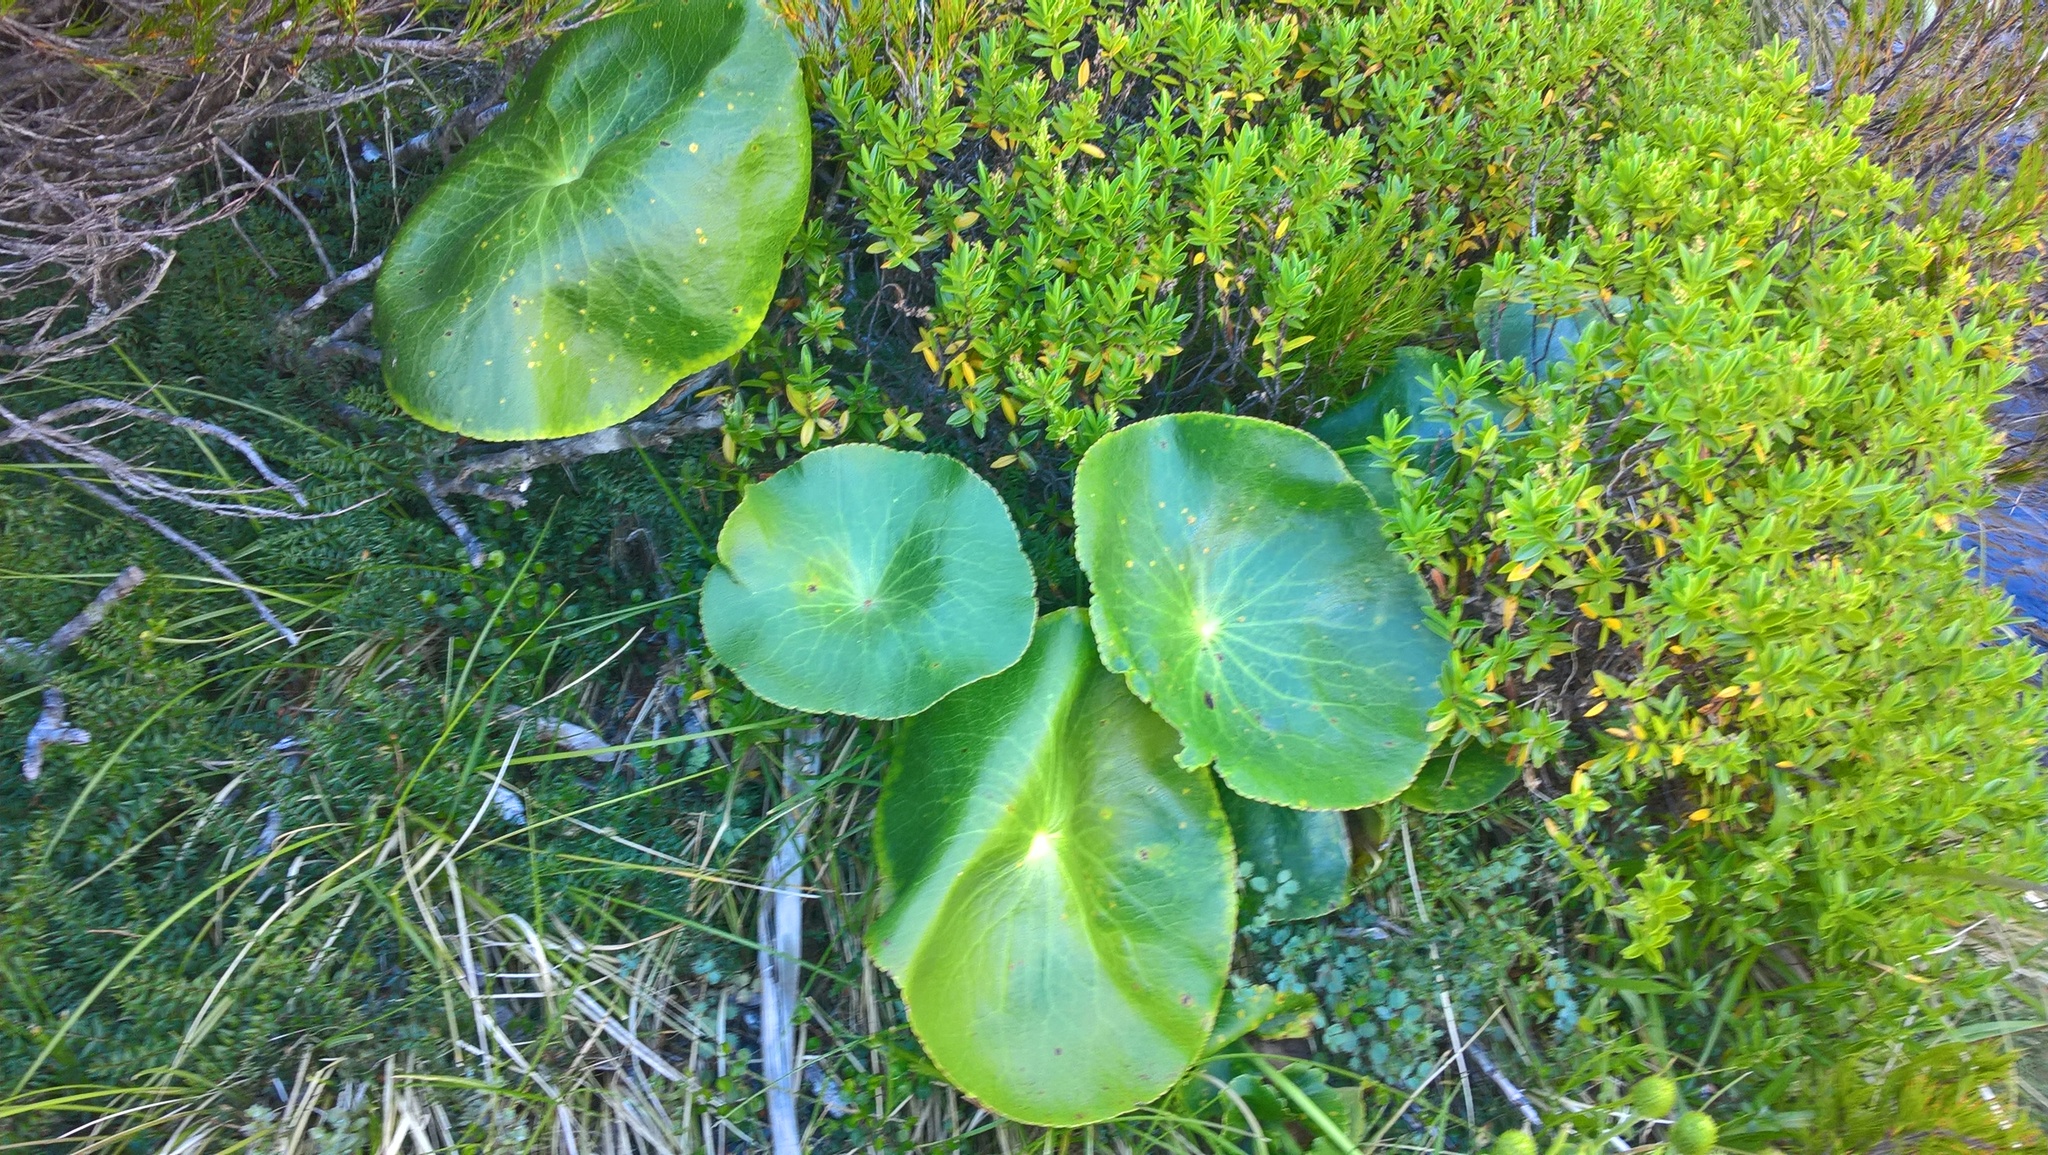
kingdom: Plantae
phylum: Tracheophyta
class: Magnoliopsida
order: Ranunculales
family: Ranunculaceae
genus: Ranunculus
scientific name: Ranunculus lyallii
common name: Mountain-lily
